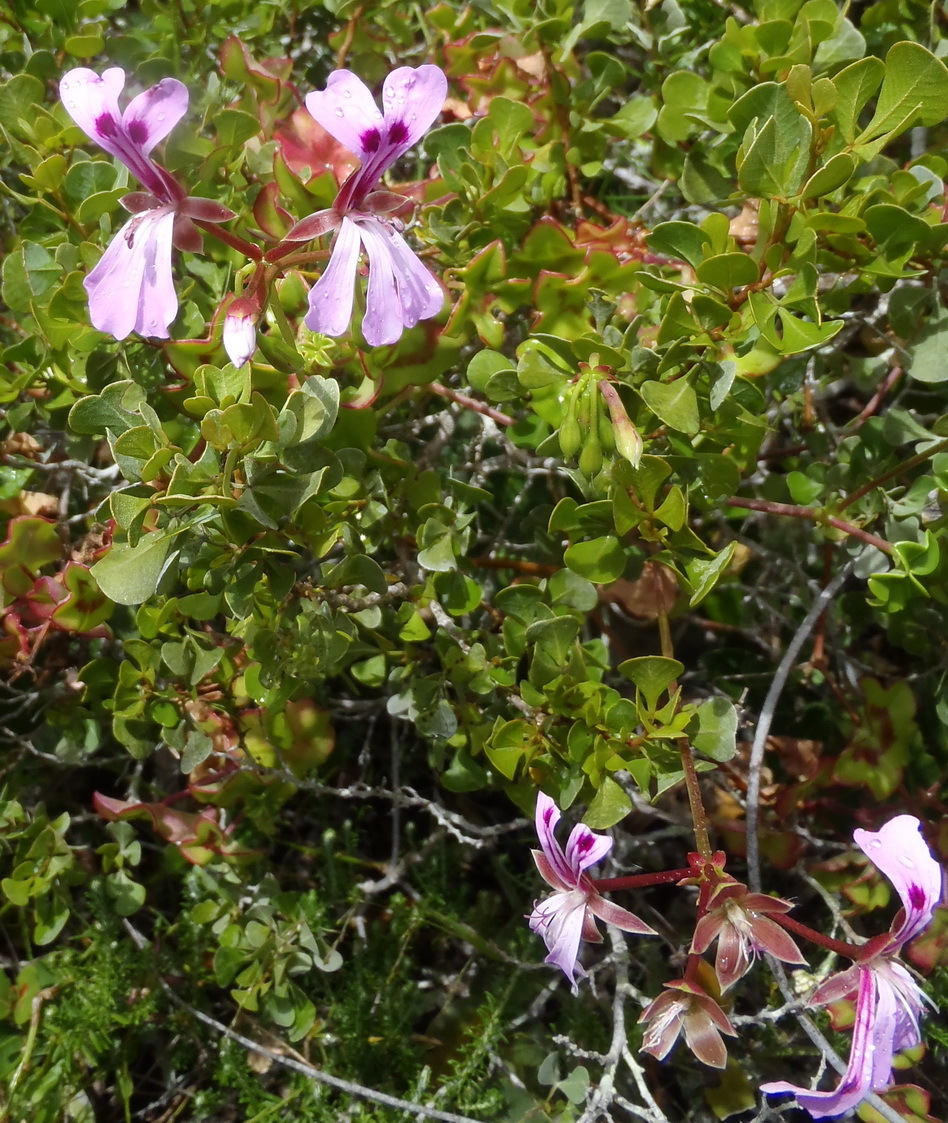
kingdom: Plantae
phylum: Tracheophyta
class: Magnoliopsida
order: Geraniales
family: Geraniaceae
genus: Pelargonium
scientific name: Pelargonium peltatum
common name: Ivyleaf geranium
